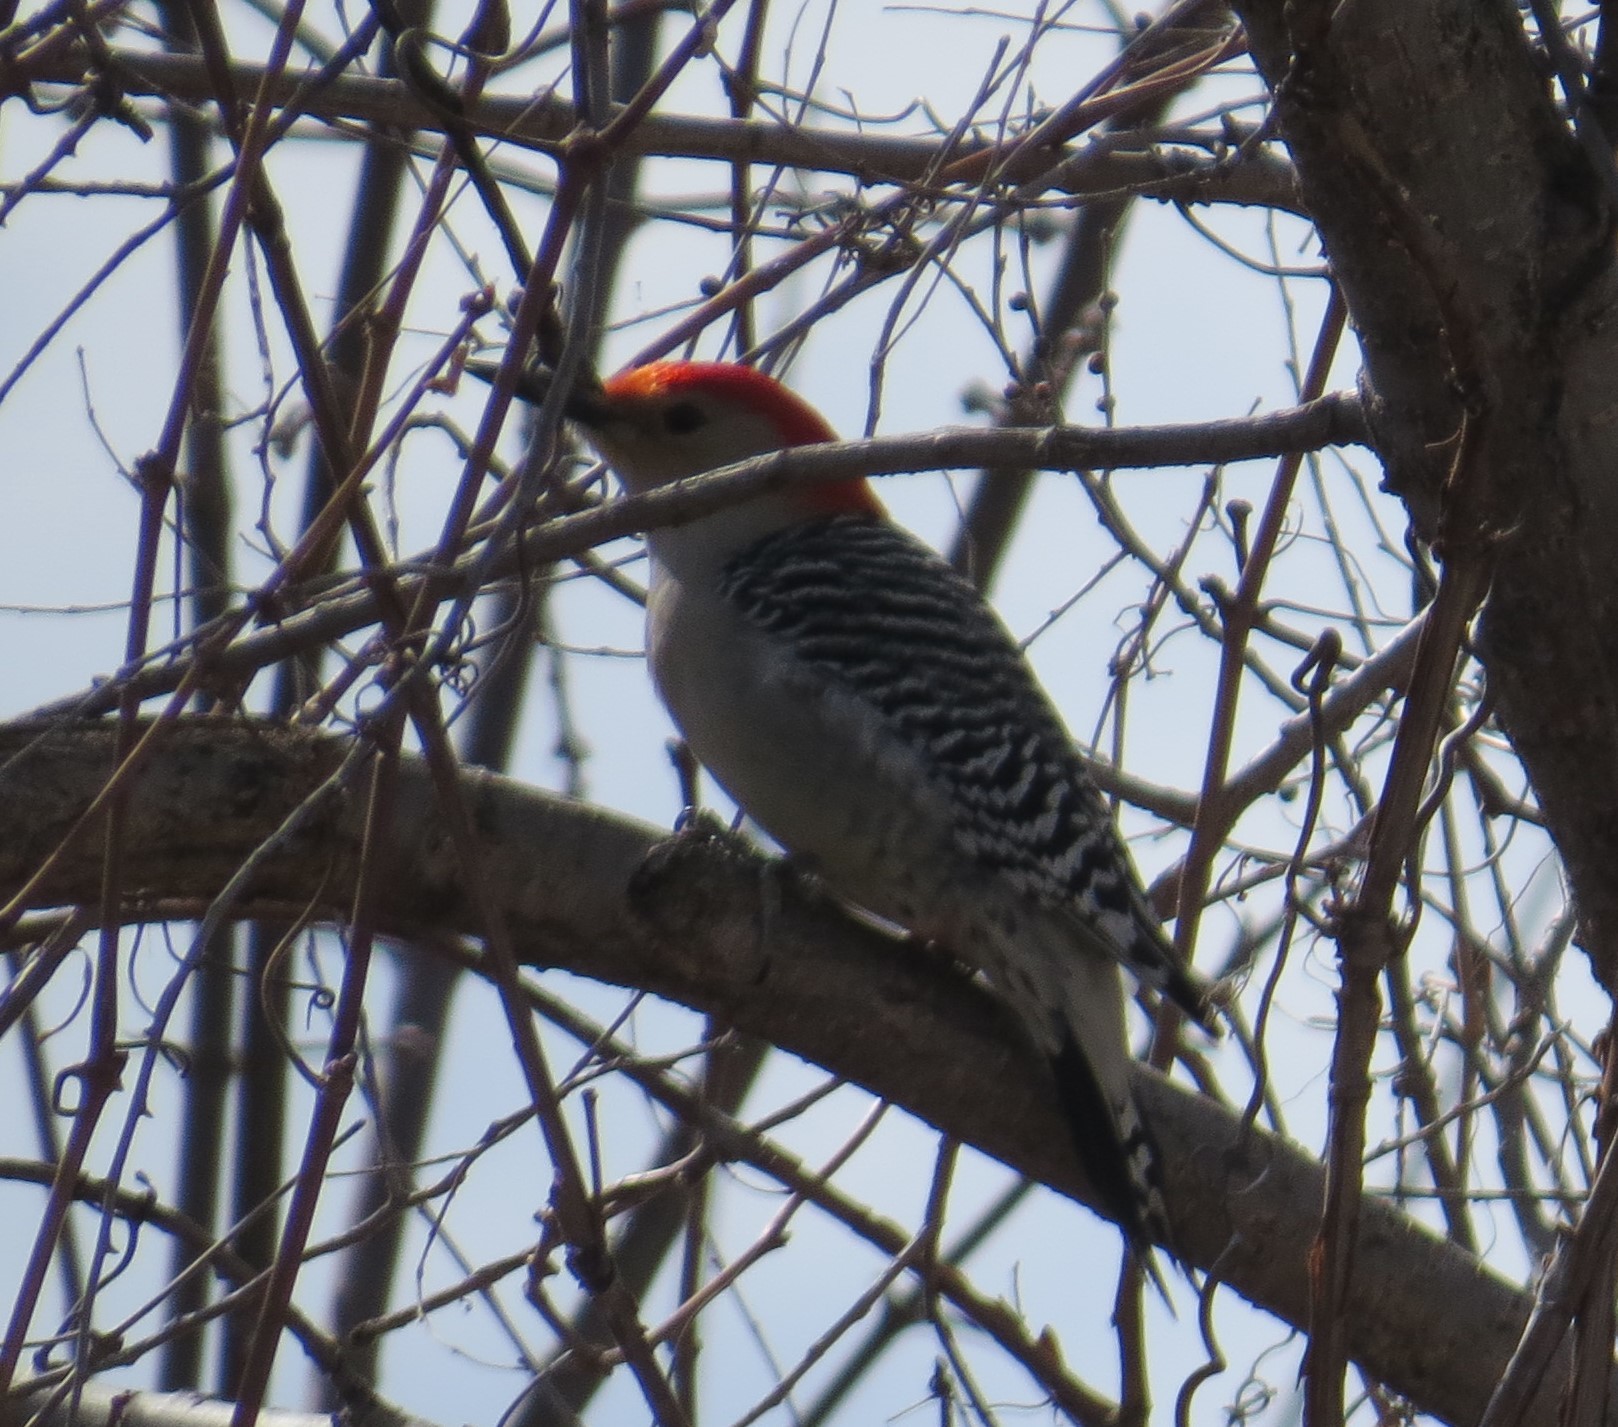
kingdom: Animalia
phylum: Chordata
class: Aves
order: Piciformes
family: Picidae
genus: Melanerpes
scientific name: Melanerpes carolinus
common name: Red-bellied woodpecker
